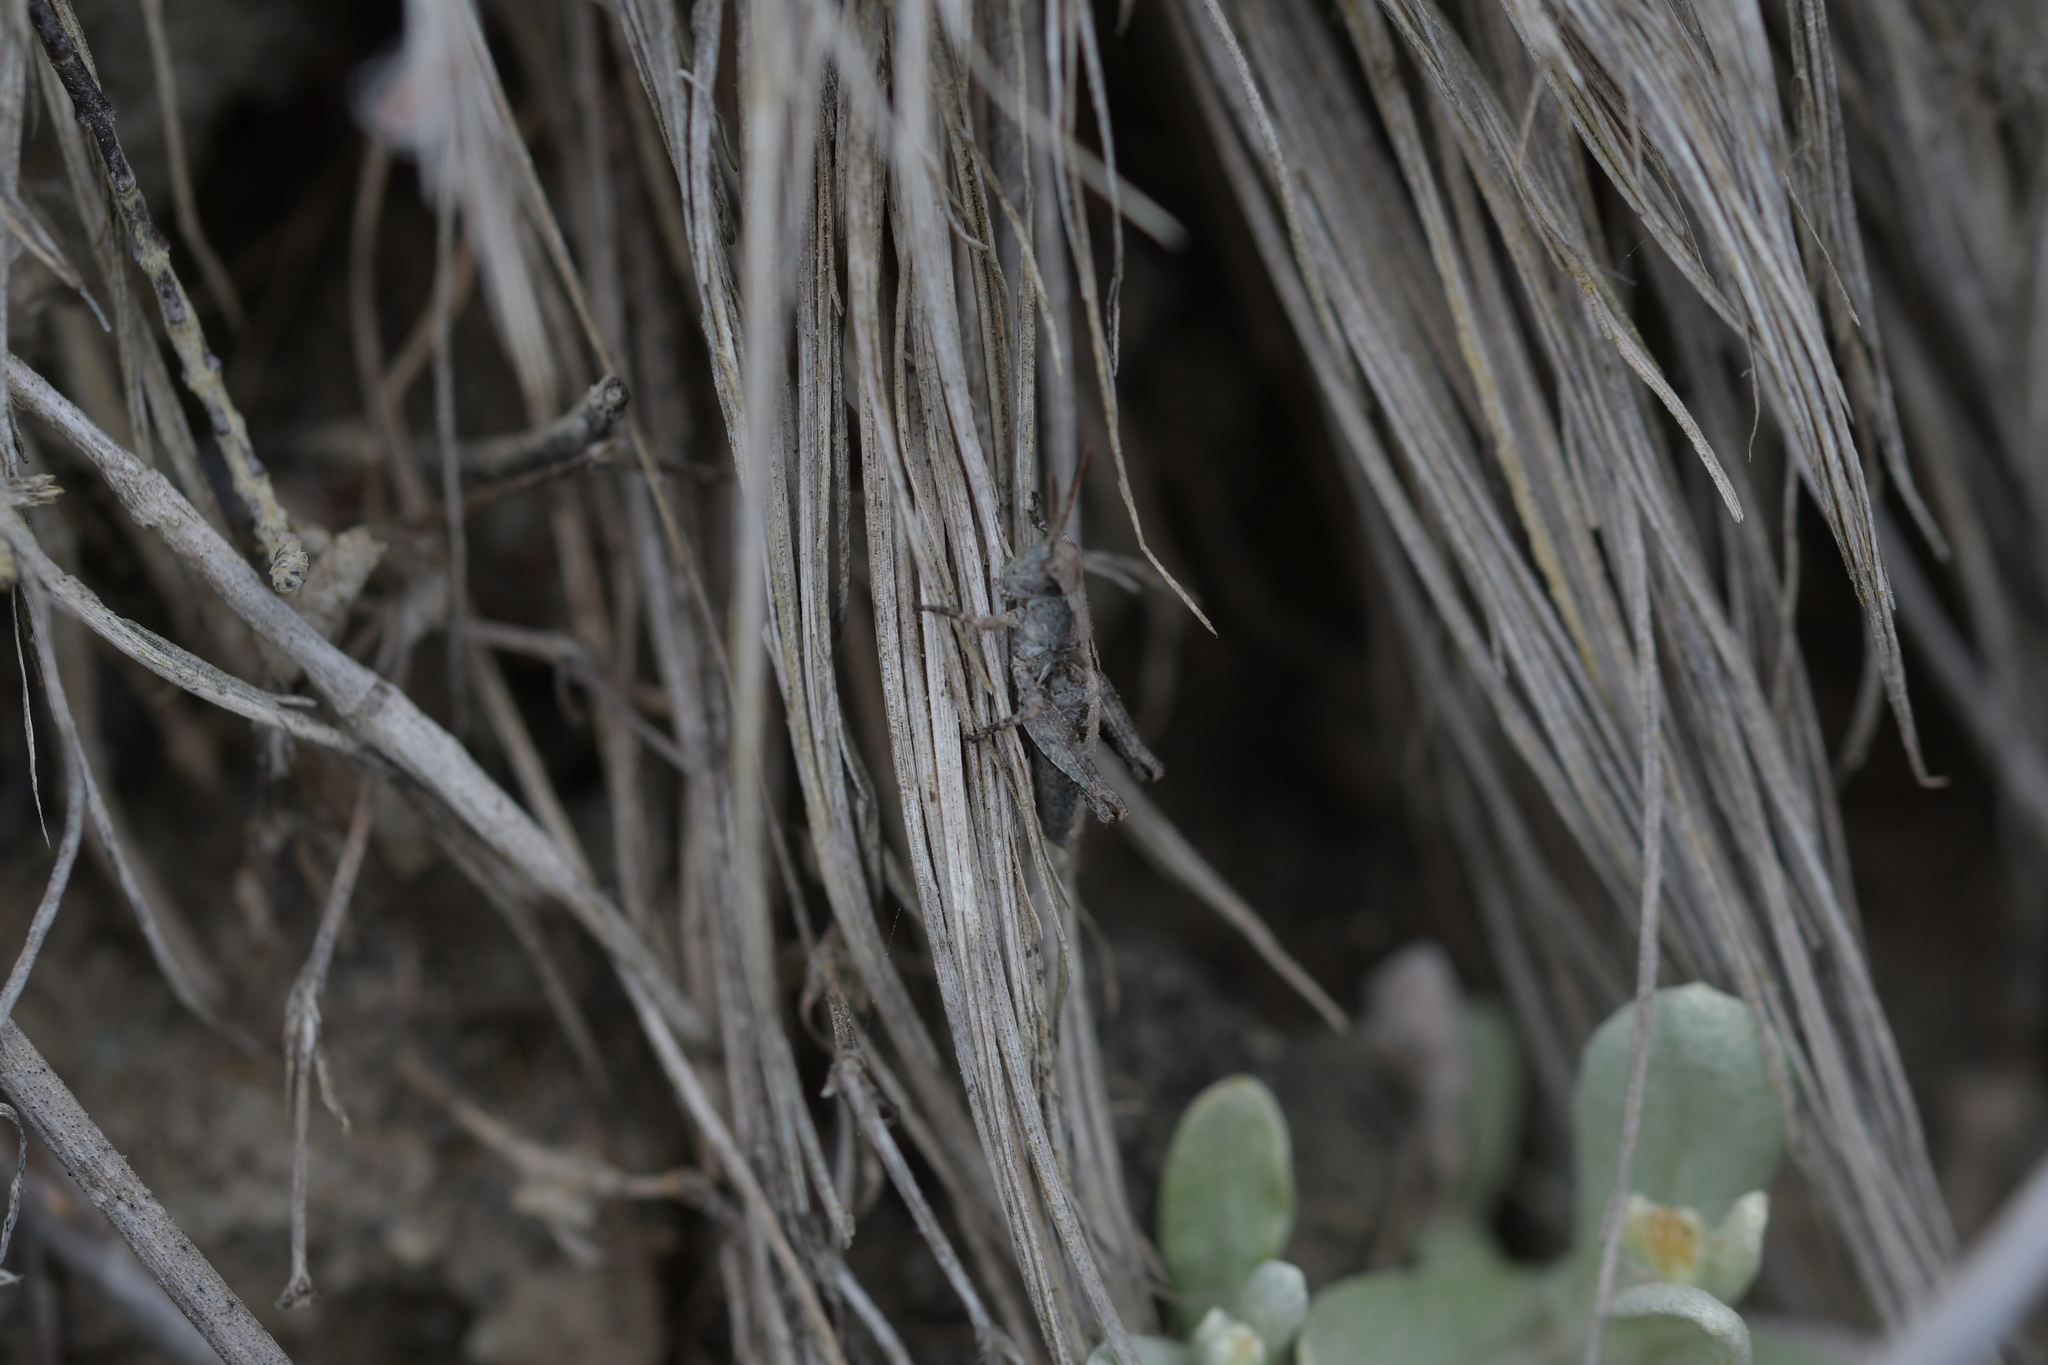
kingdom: Animalia
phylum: Arthropoda
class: Insecta
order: Orthoptera
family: Acrididae
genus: Phaulacridium
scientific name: Phaulacridium marginale
